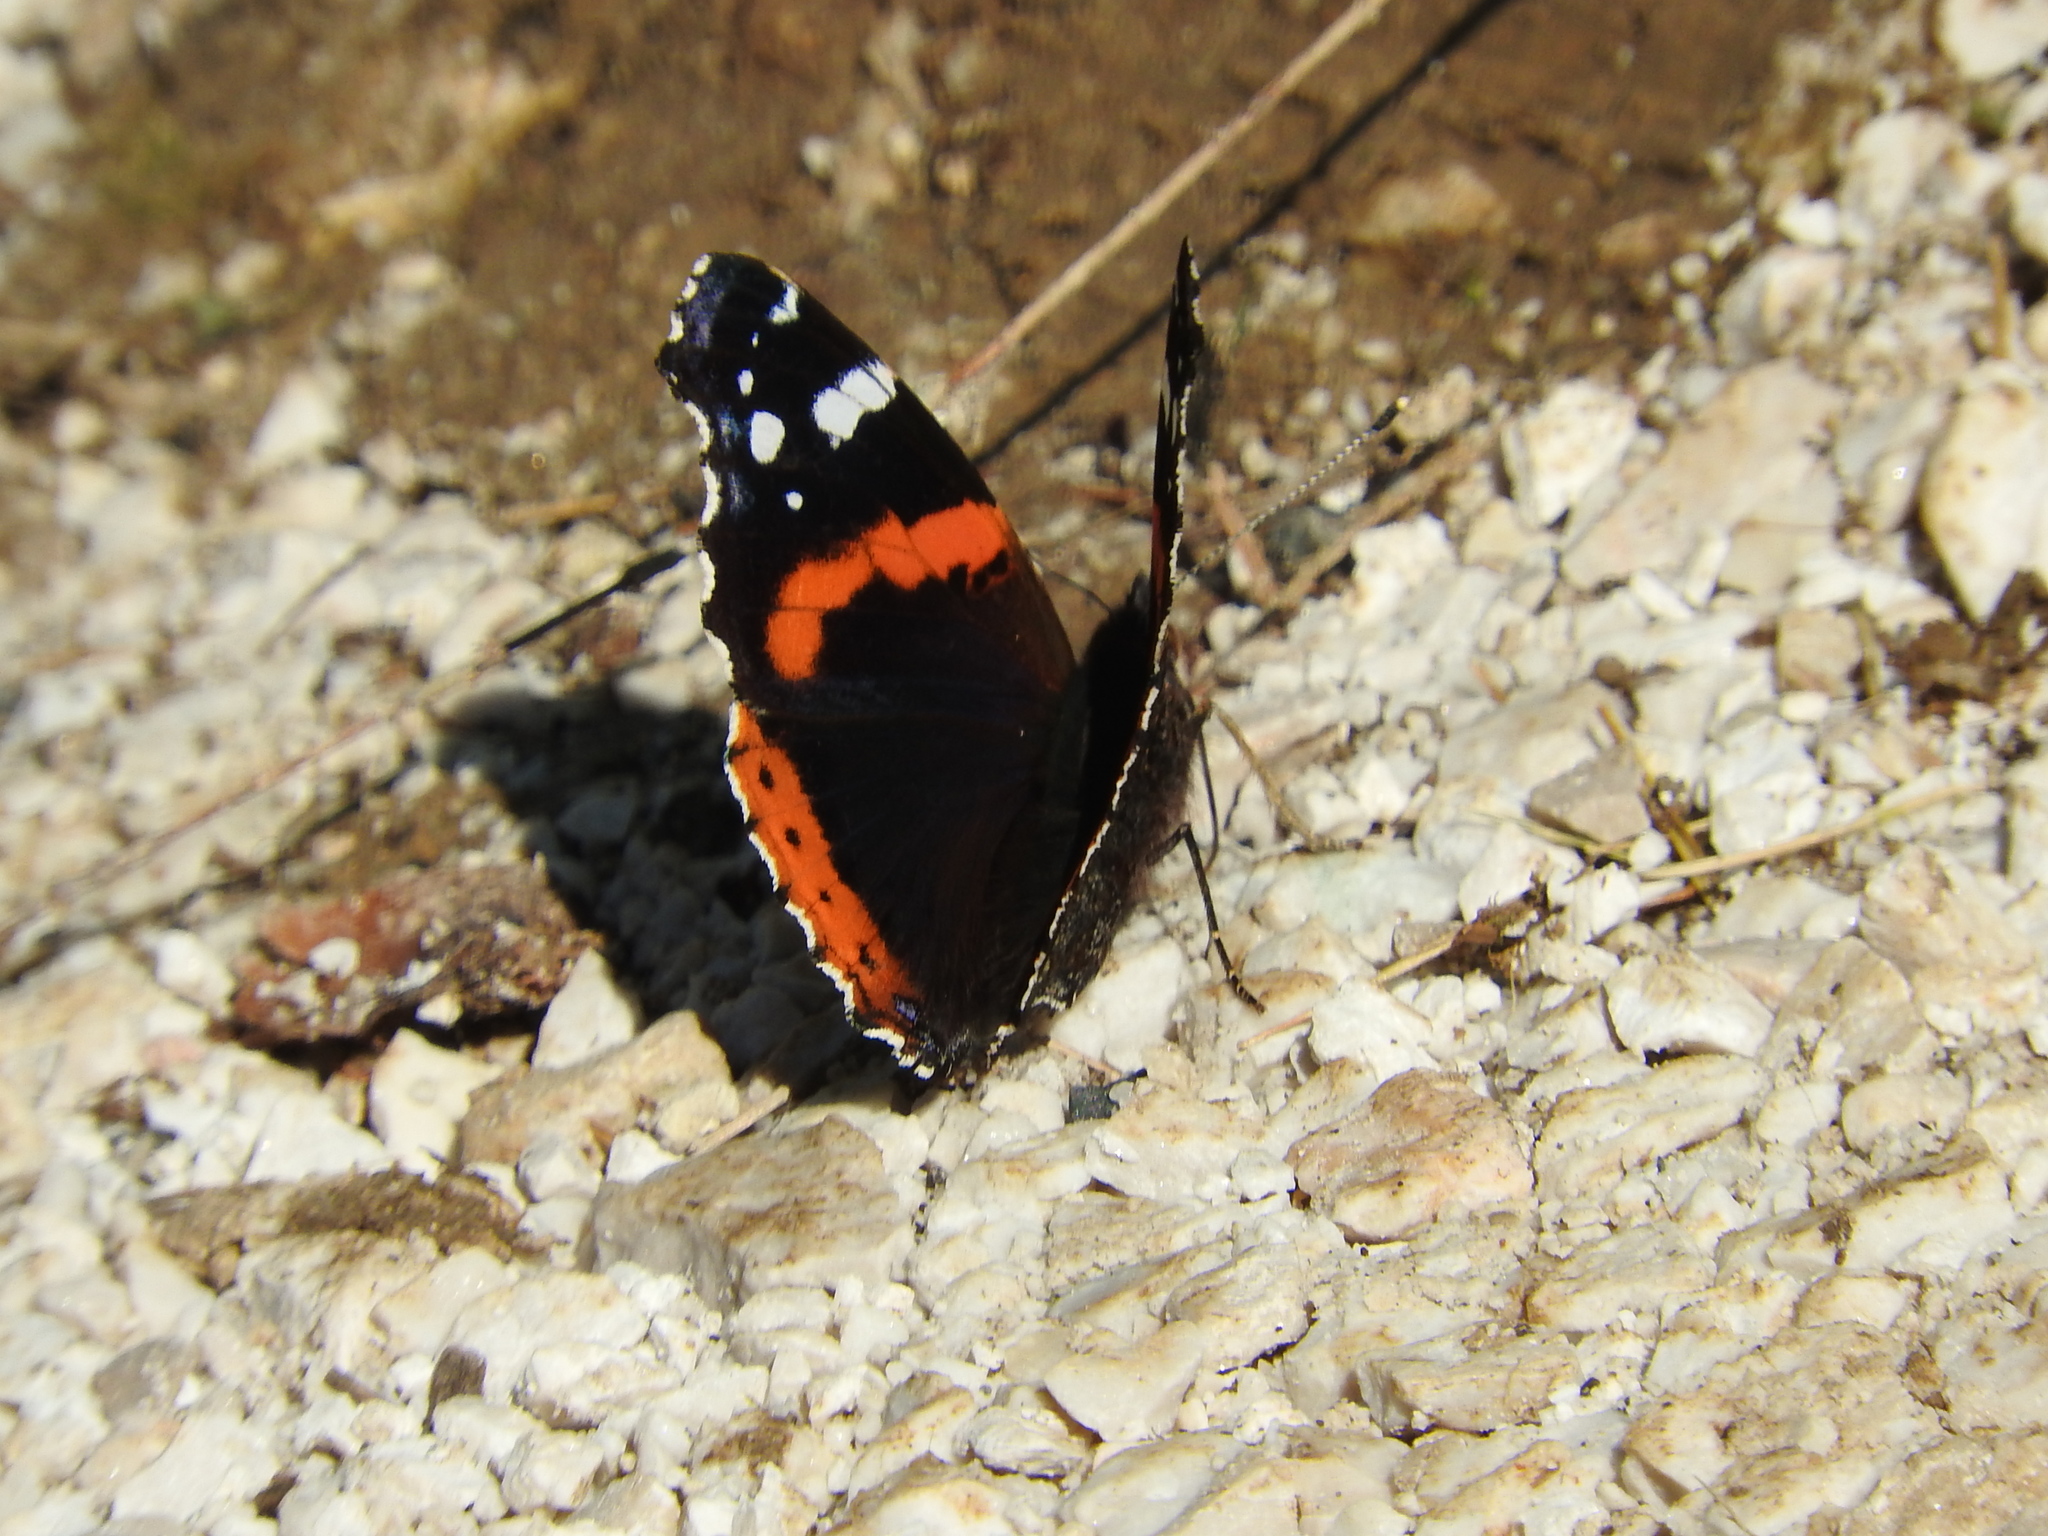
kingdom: Animalia
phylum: Arthropoda
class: Insecta
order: Lepidoptera
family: Nymphalidae
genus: Vanessa
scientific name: Vanessa atalanta
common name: Red admiral
